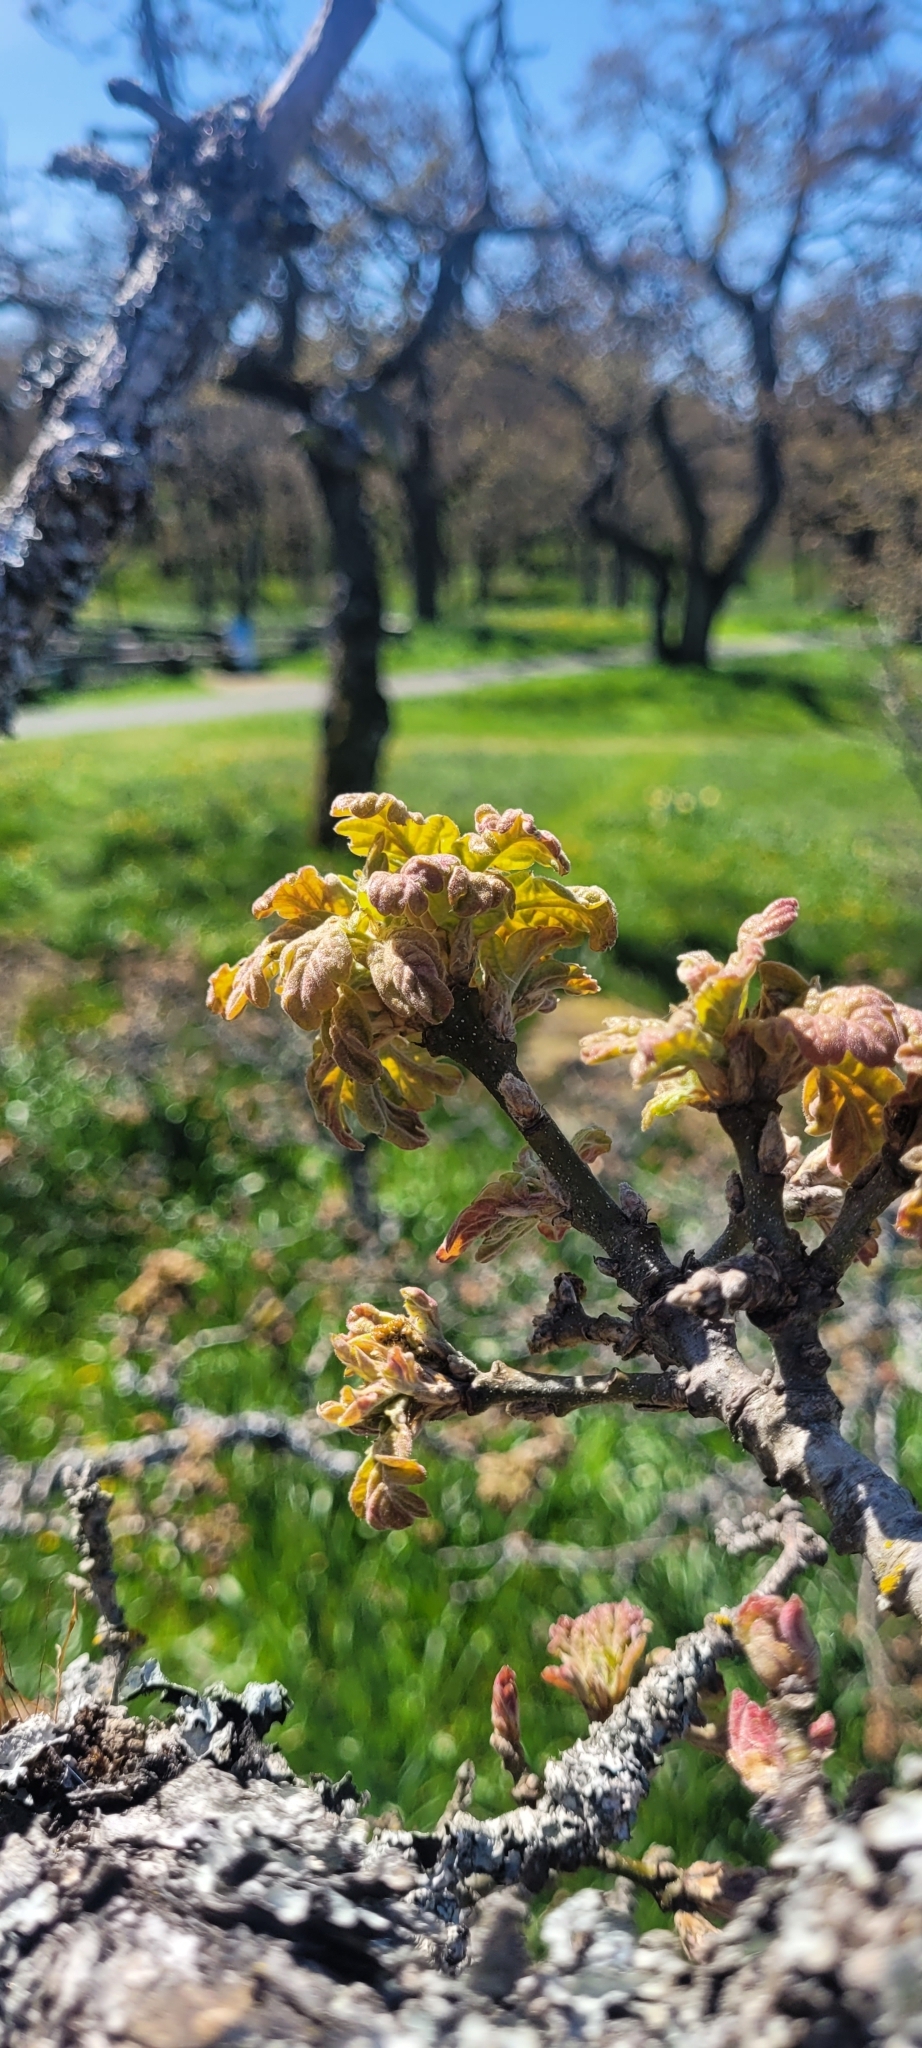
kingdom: Plantae
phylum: Tracheophyta
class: Magnoliopsida
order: Fagales
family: Fagaceae
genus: Quercus
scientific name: Quercus garryana
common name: Garry oak
